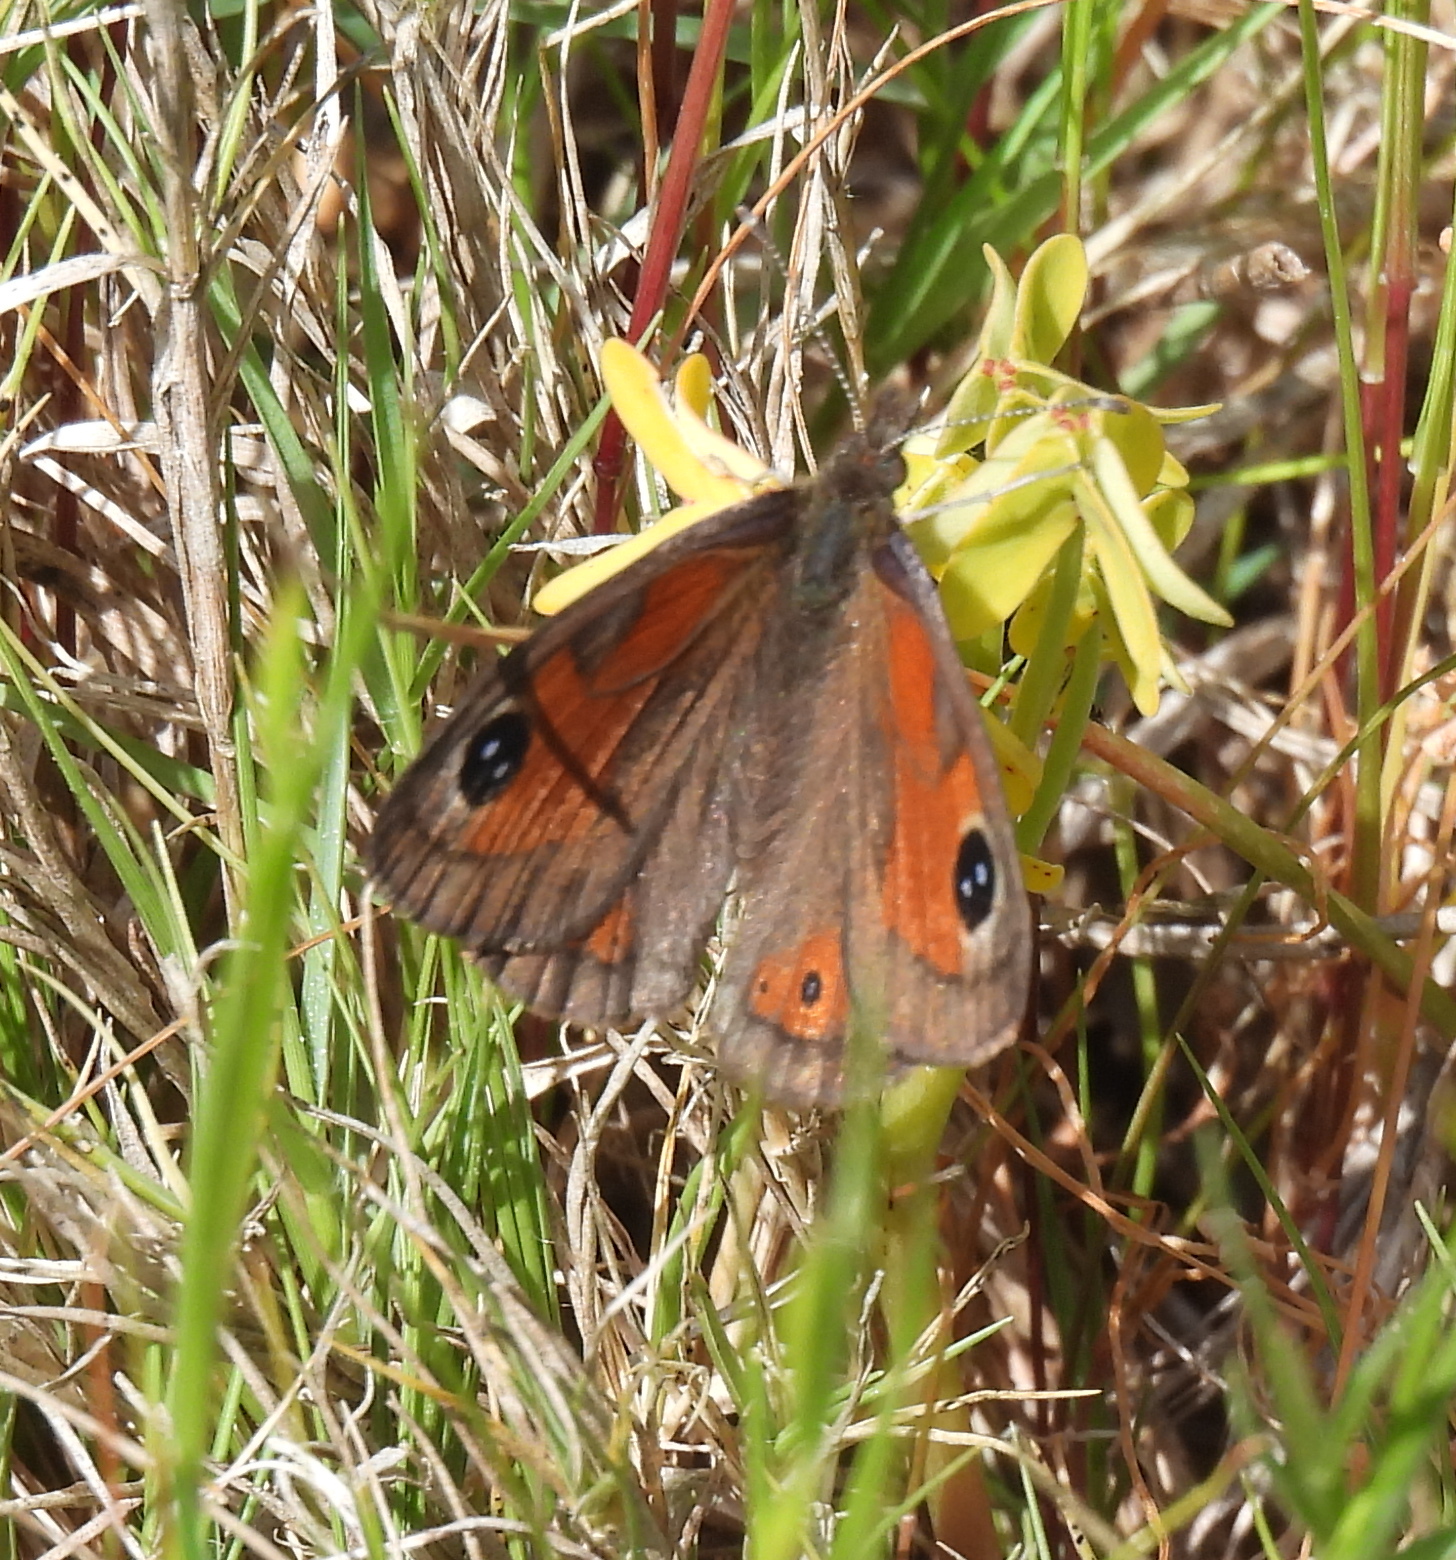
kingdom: Animalia
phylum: Arthropoda
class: Insecta
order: Lepidoptera
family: Nymphalidae
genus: Pseudonympha
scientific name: Pseudonympha magus
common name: Silver-bottom brown
